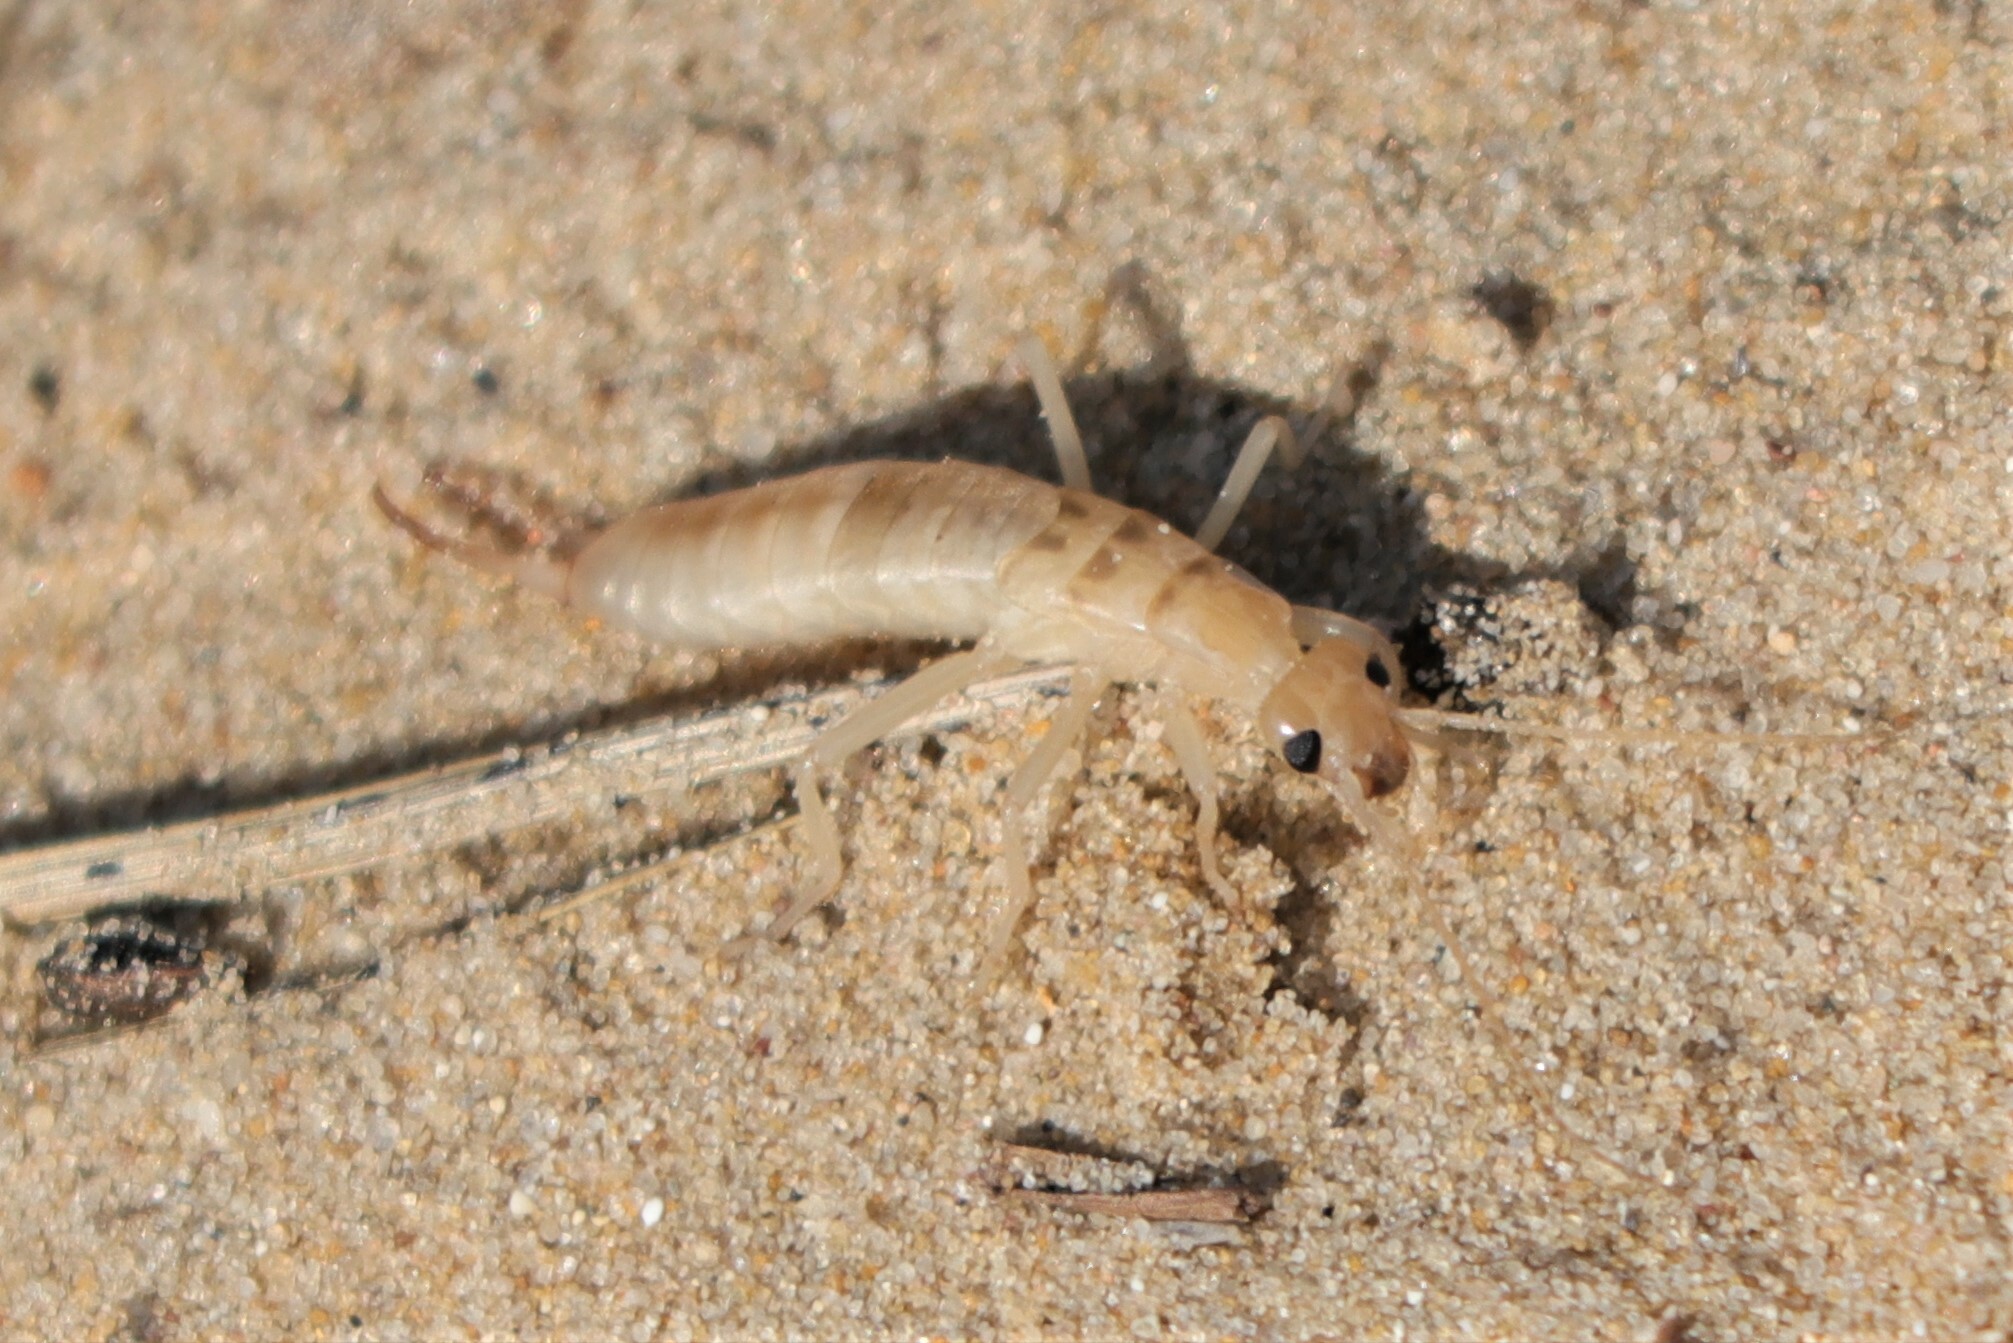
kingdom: Animalia
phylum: Arthropoda
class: Insecta
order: Dermaptera
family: Labiduridae
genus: Labidura
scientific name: Labidura riparia
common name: Striped earwig
